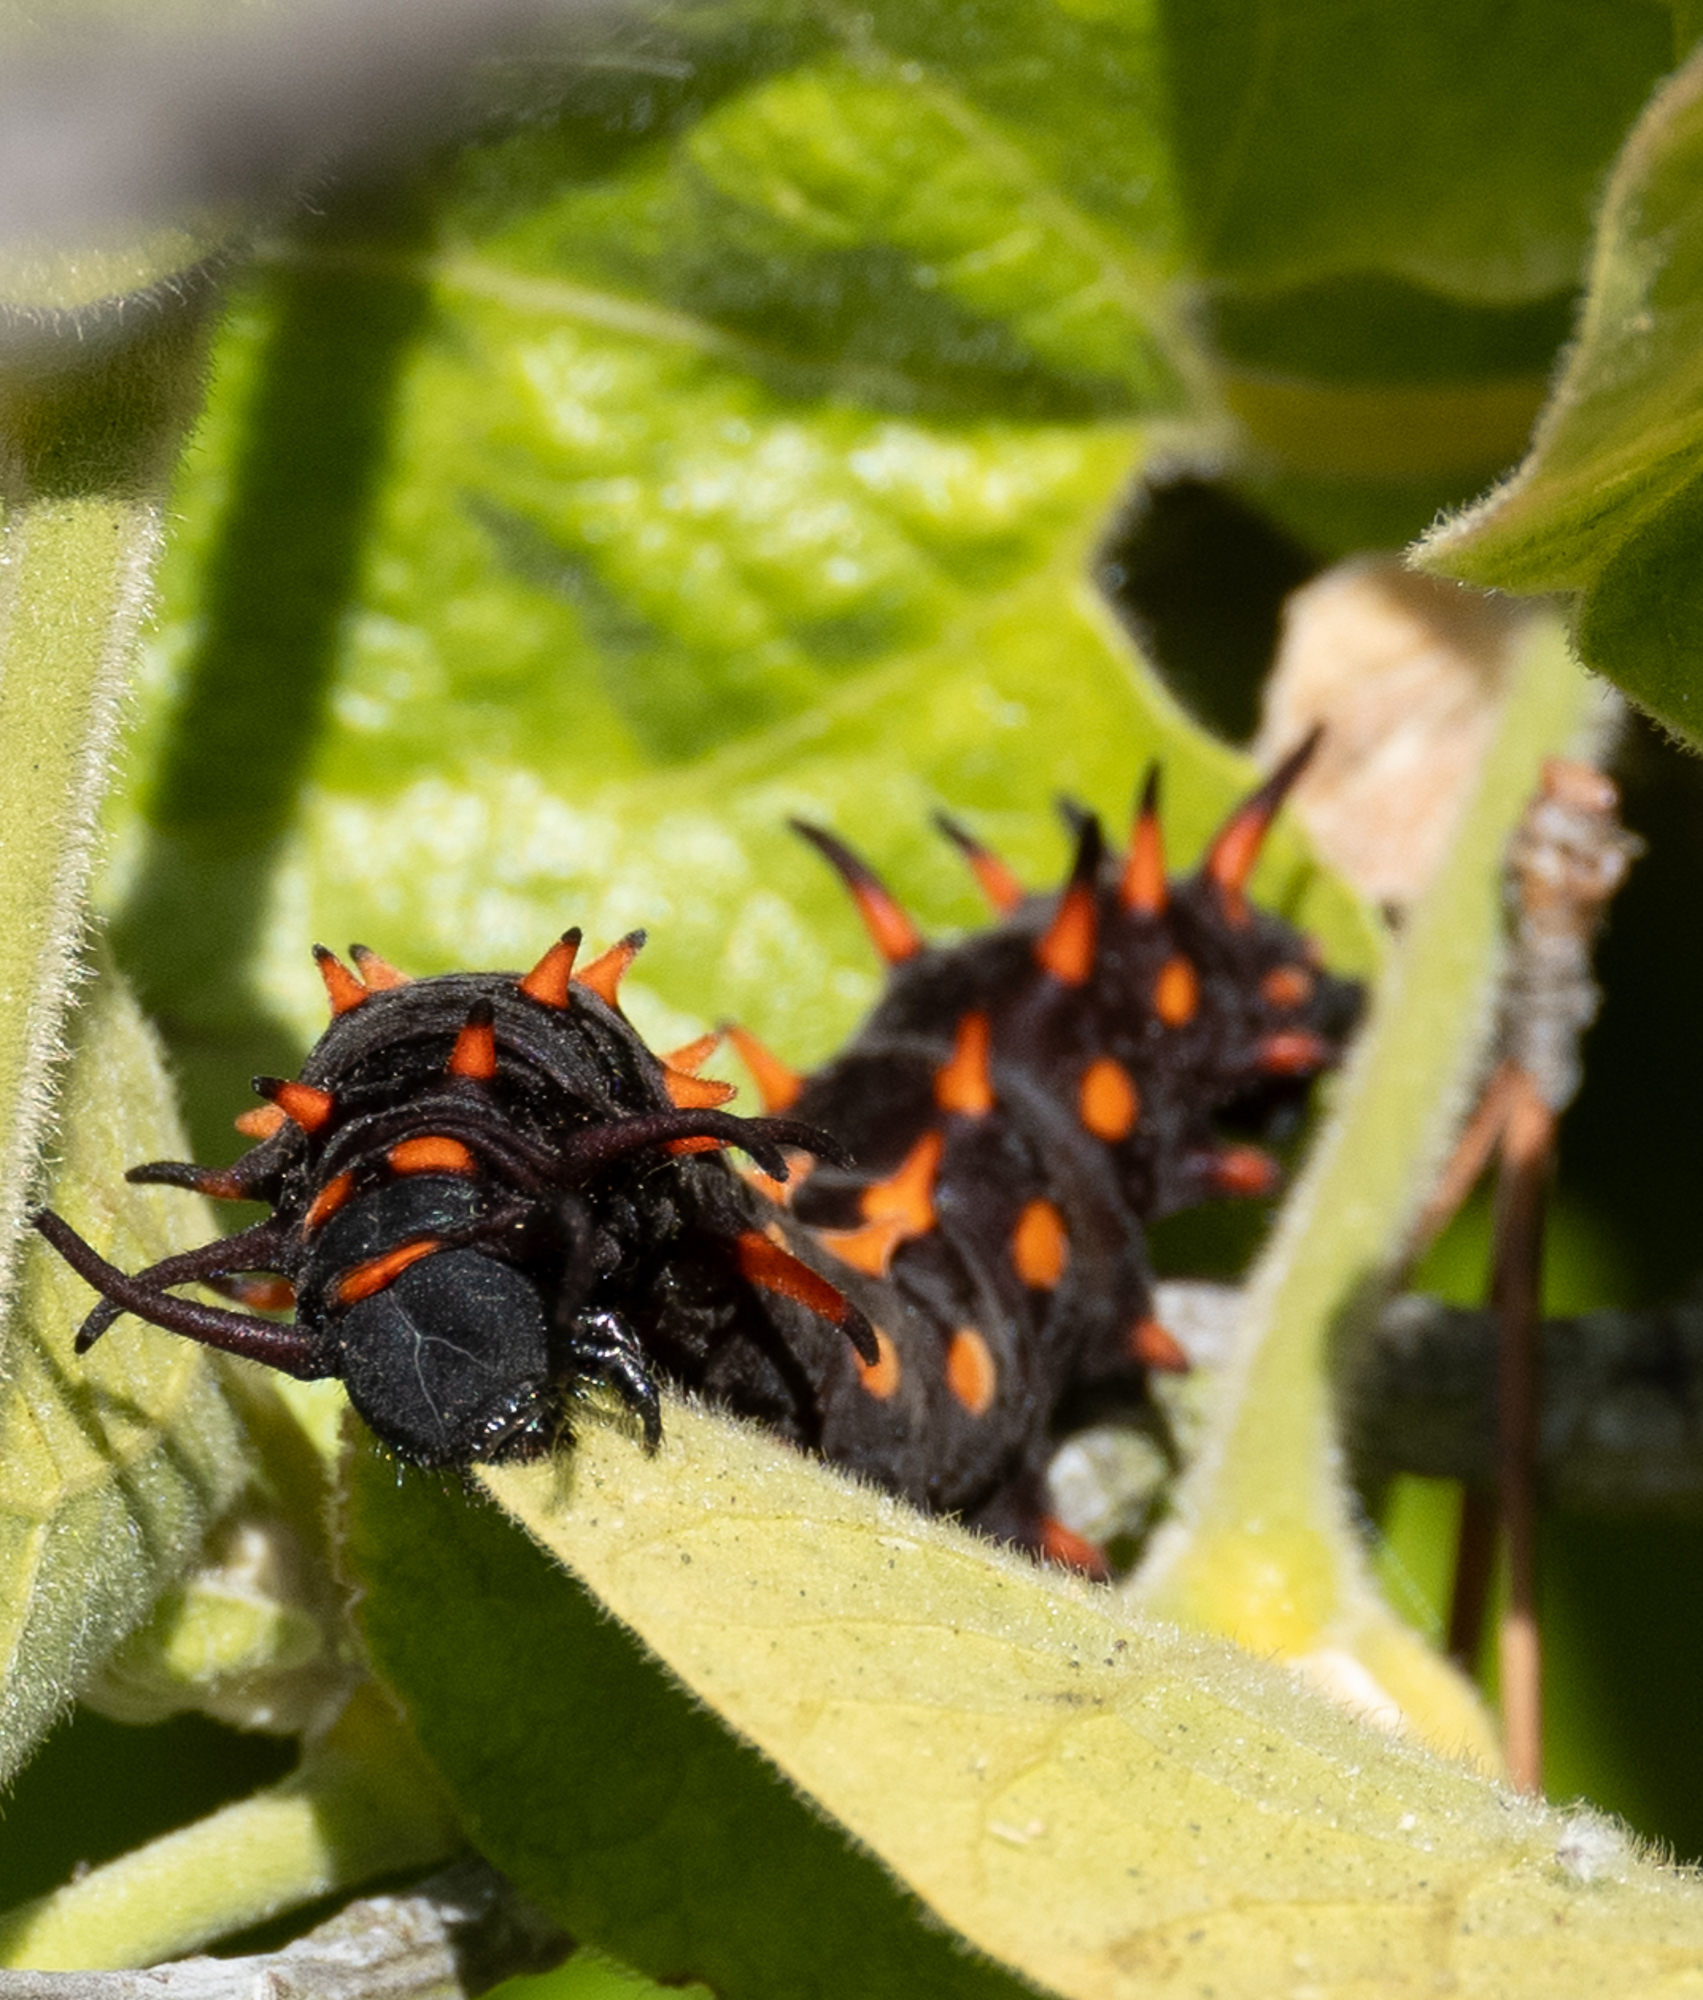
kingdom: Animalia
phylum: Arthropoda
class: Insecta
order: Lepidoptera
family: Papilionidae
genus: Battus
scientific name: Battus philenor
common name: Pipevine swallowtail
